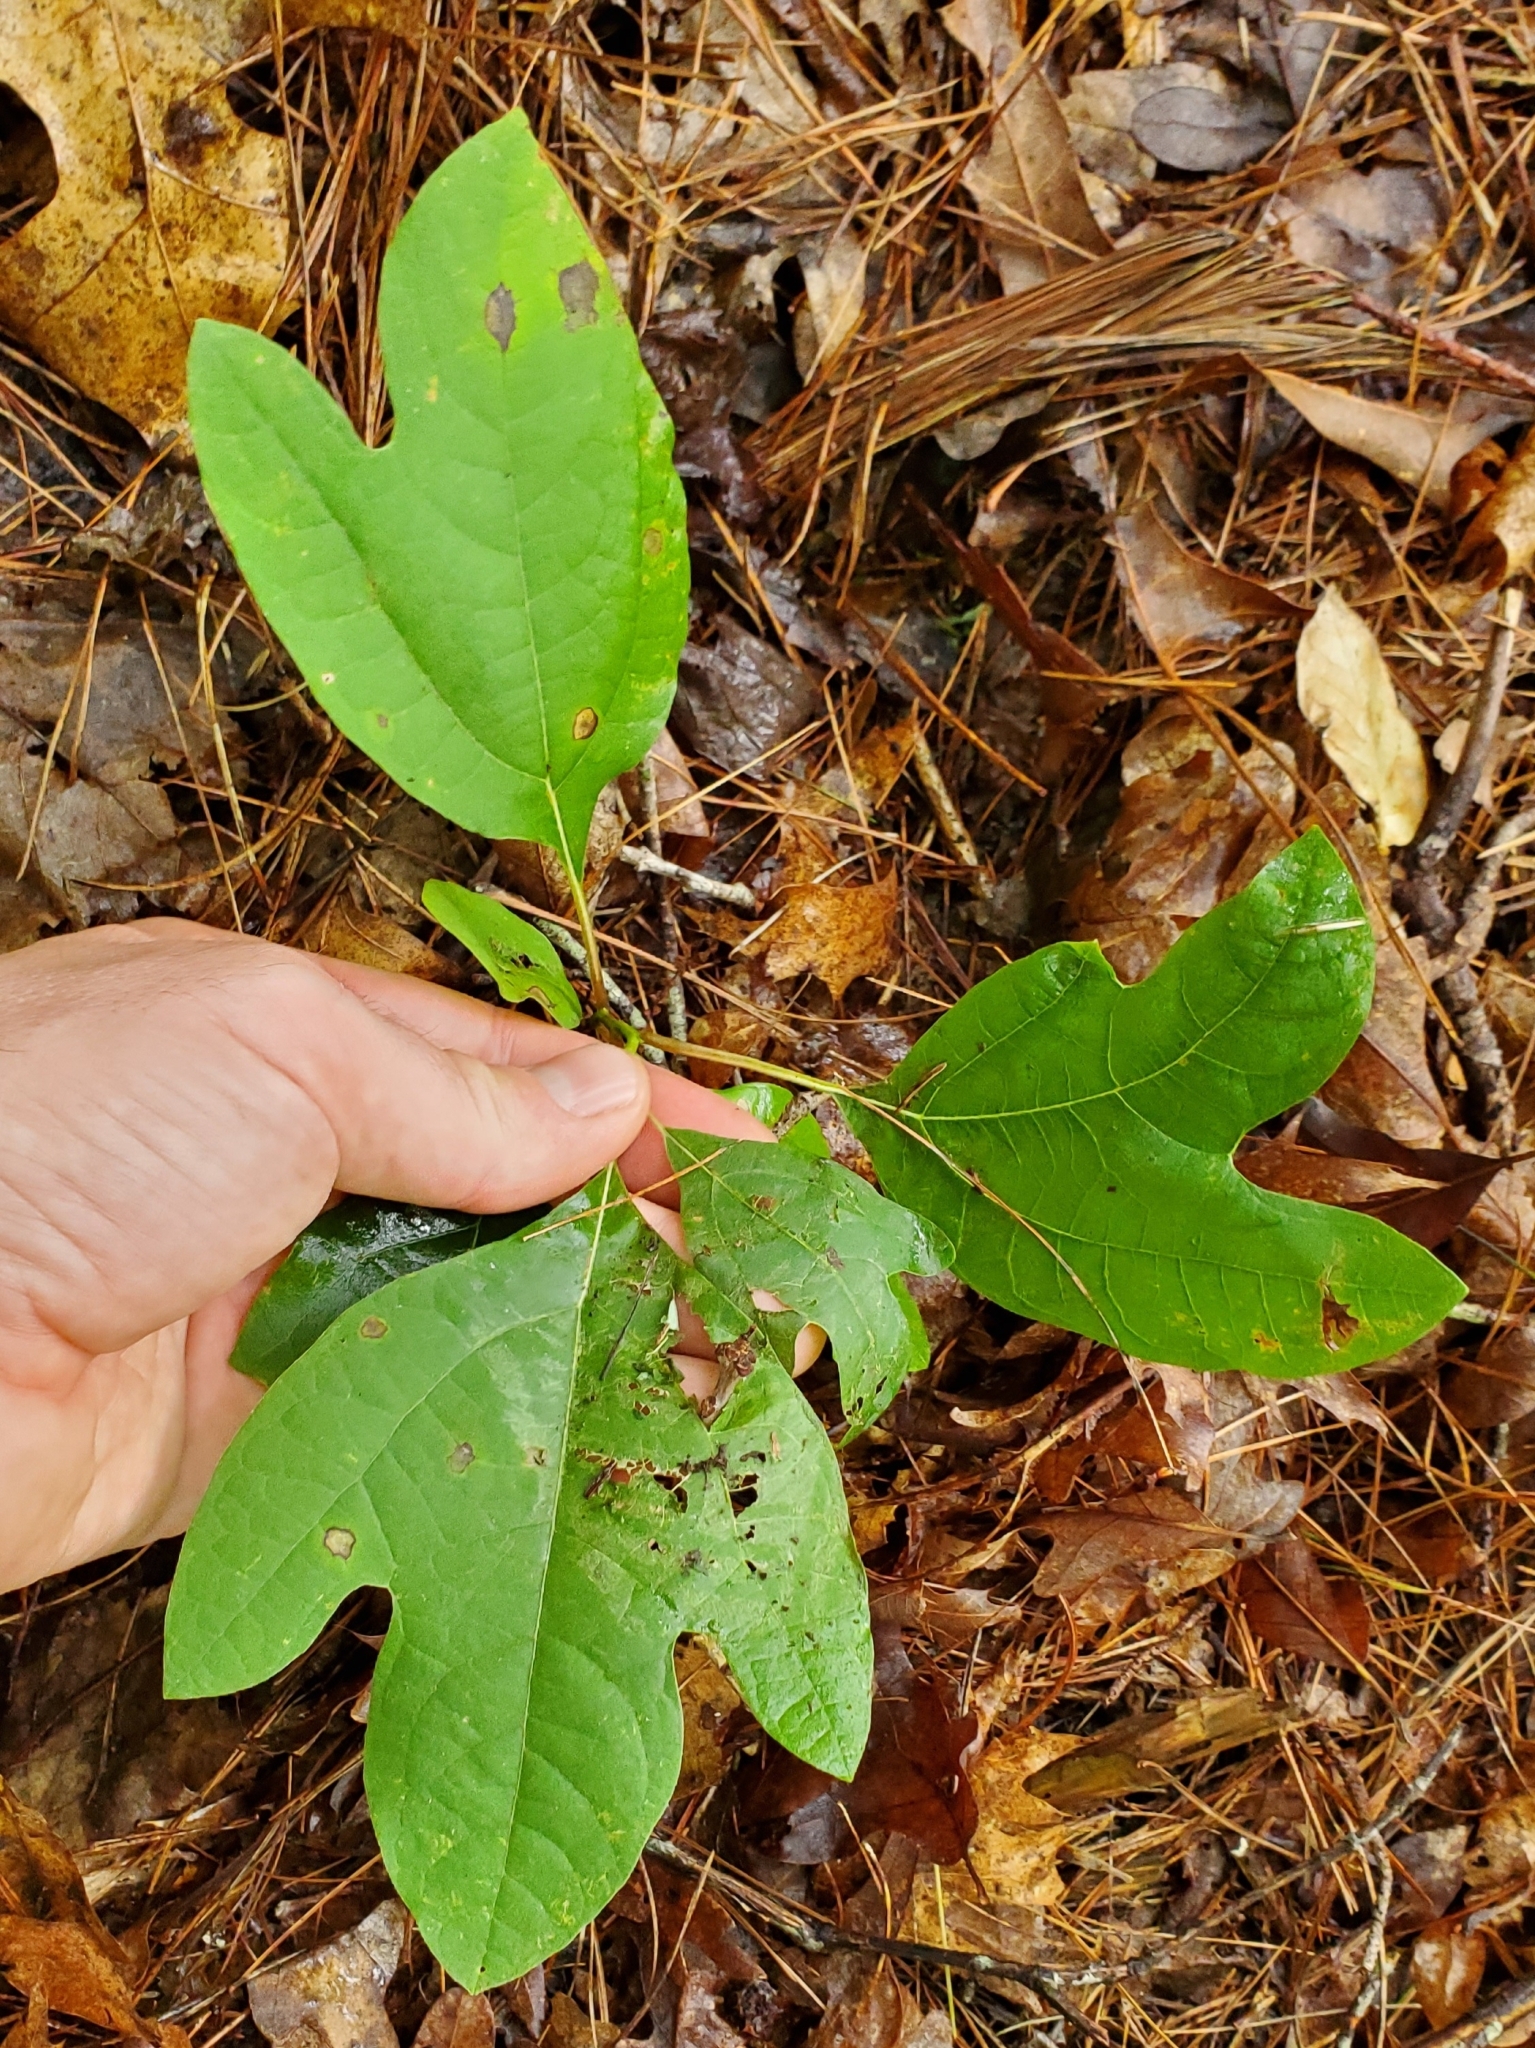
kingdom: Plantae
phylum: Tracheophyta
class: Magnoliopsida
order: Laurales
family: Lauraceae
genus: Sassafras
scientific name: Sassafras albidum
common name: Sassafras
